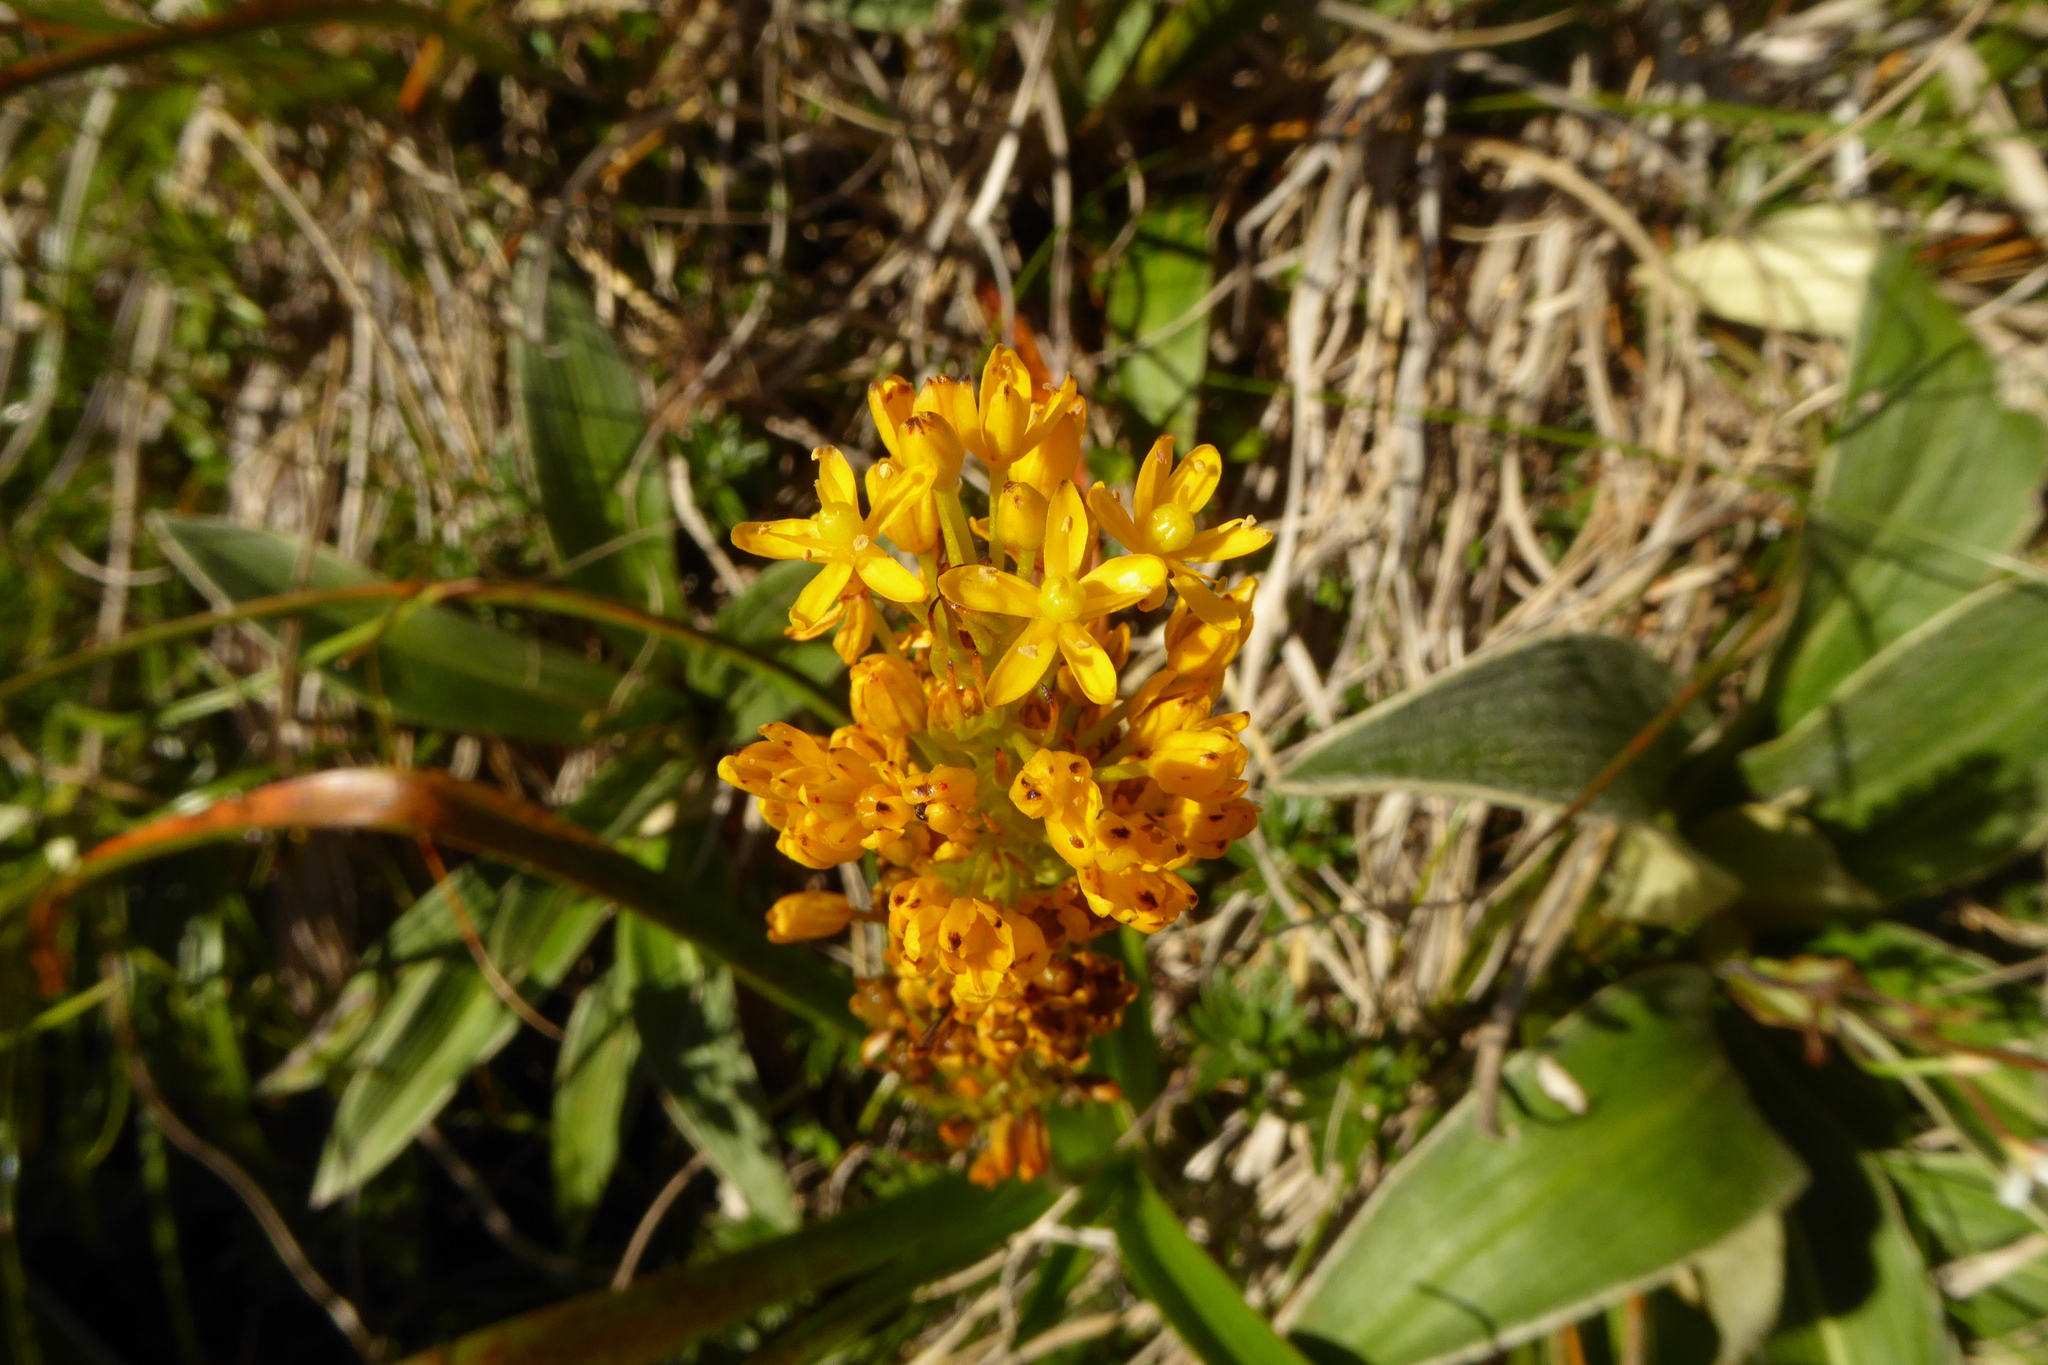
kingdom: Plantae
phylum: Tracheophyta
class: Liliopsida
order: Asparagales
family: Asphodelaceae
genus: Bulbinella
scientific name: Bulbinella gibbsii
